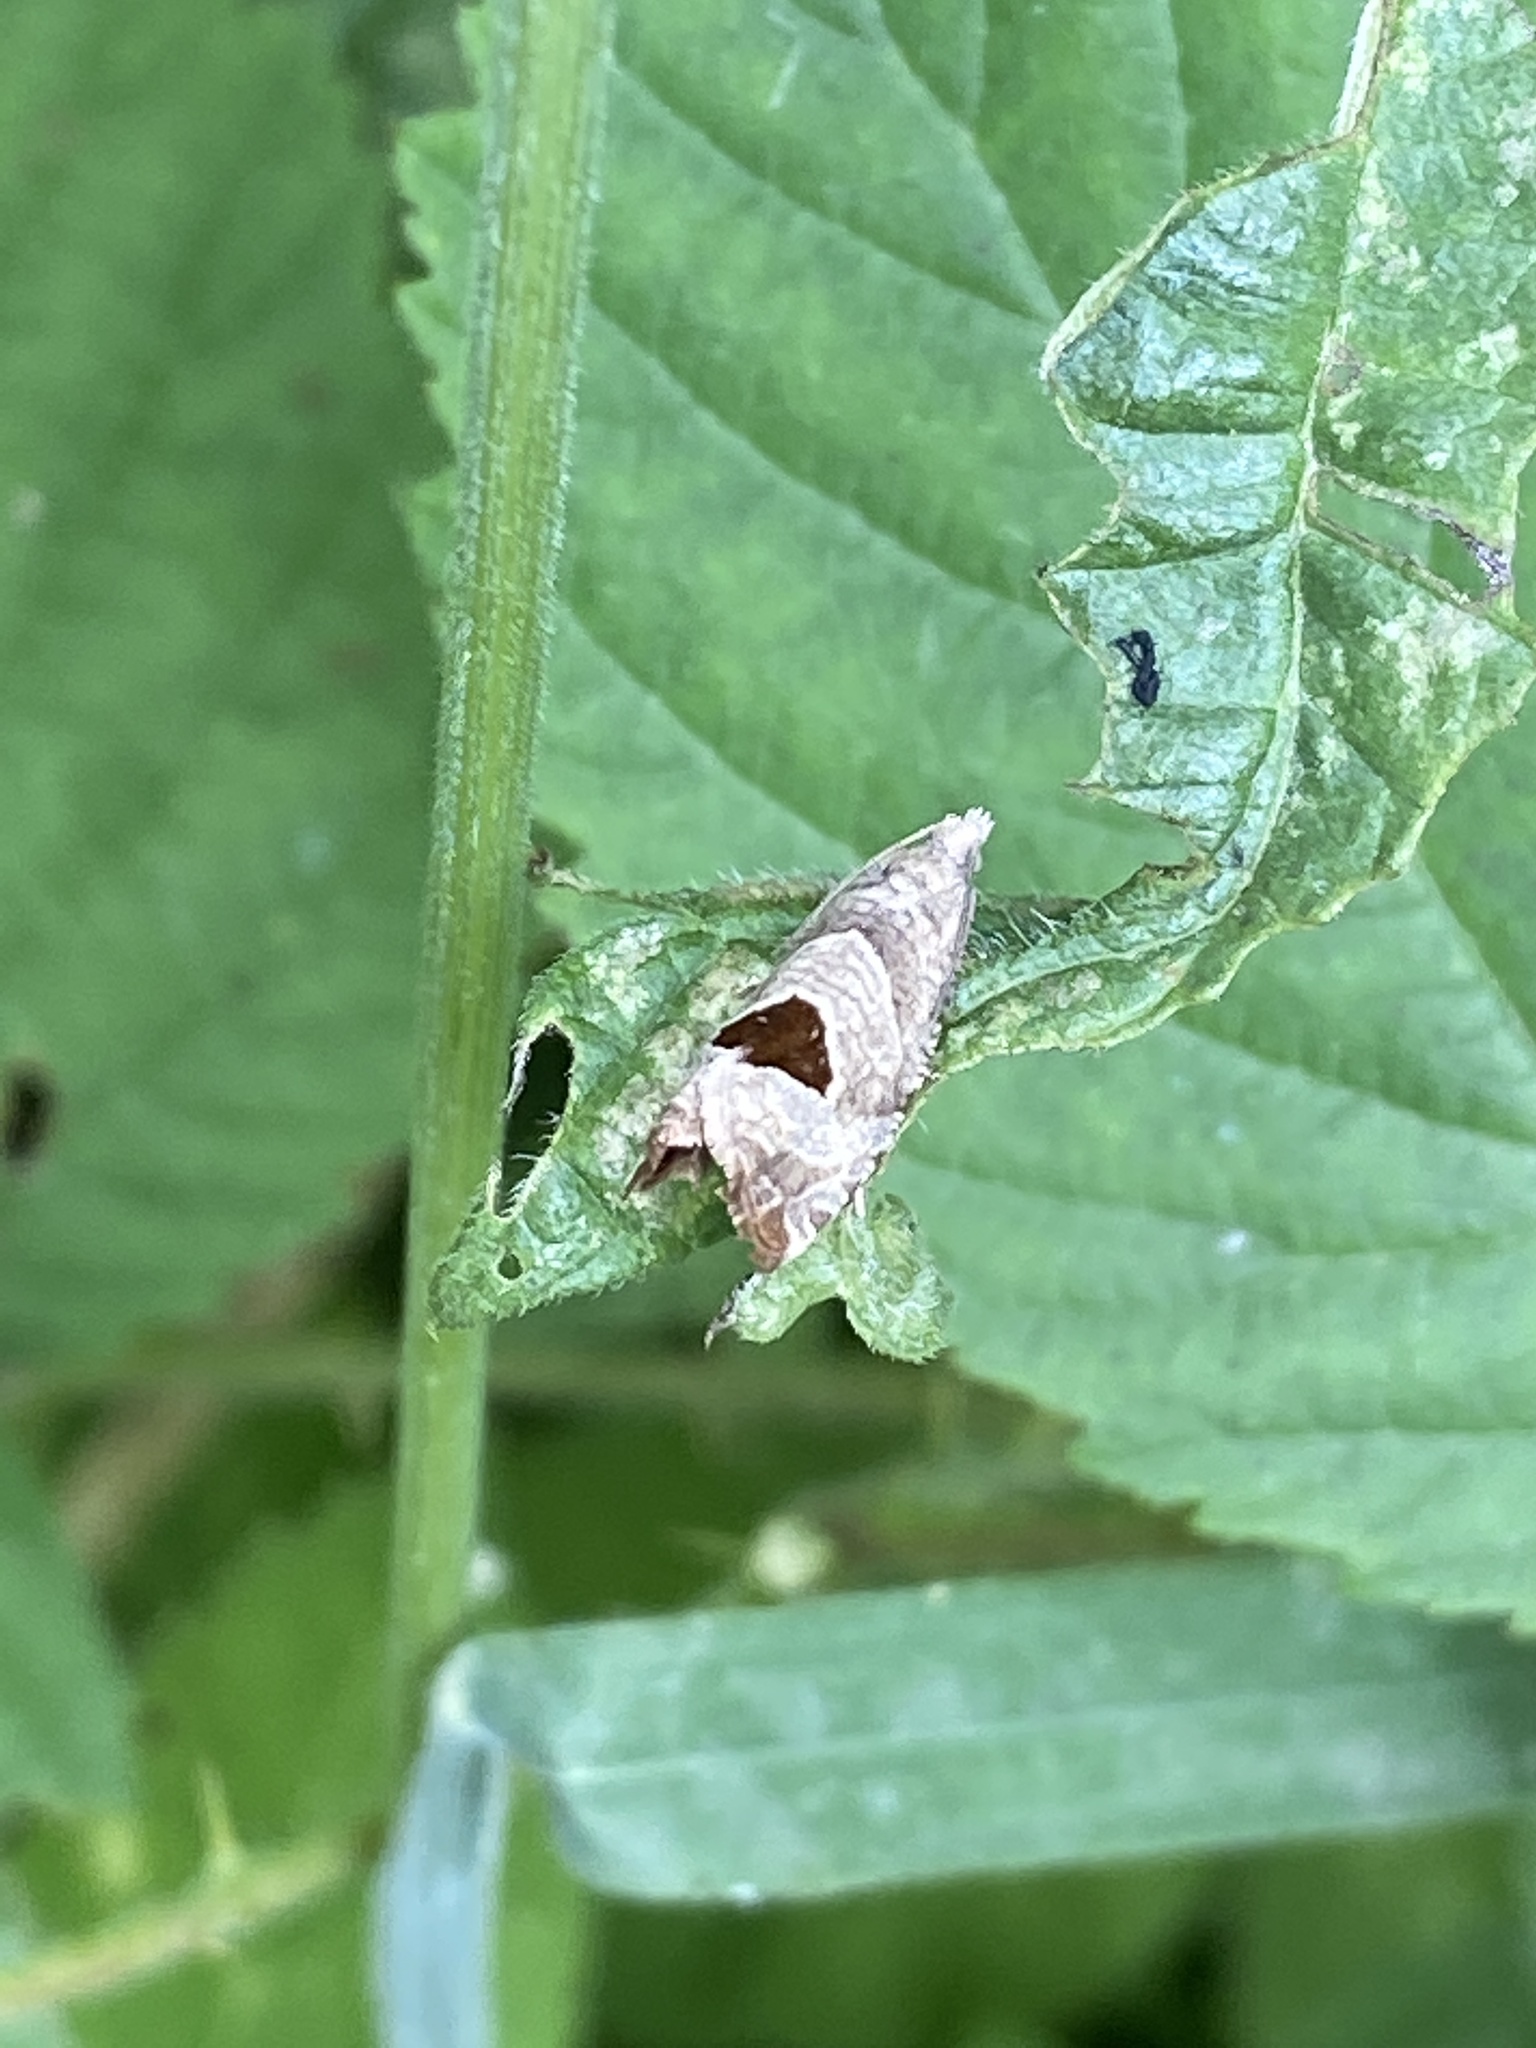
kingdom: Animalia
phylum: Arthropoda
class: Insecta
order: Lepidoptera
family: Tortricidae
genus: Notocelia
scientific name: Notocelia uddmanniana
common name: Bramble shoot moth
